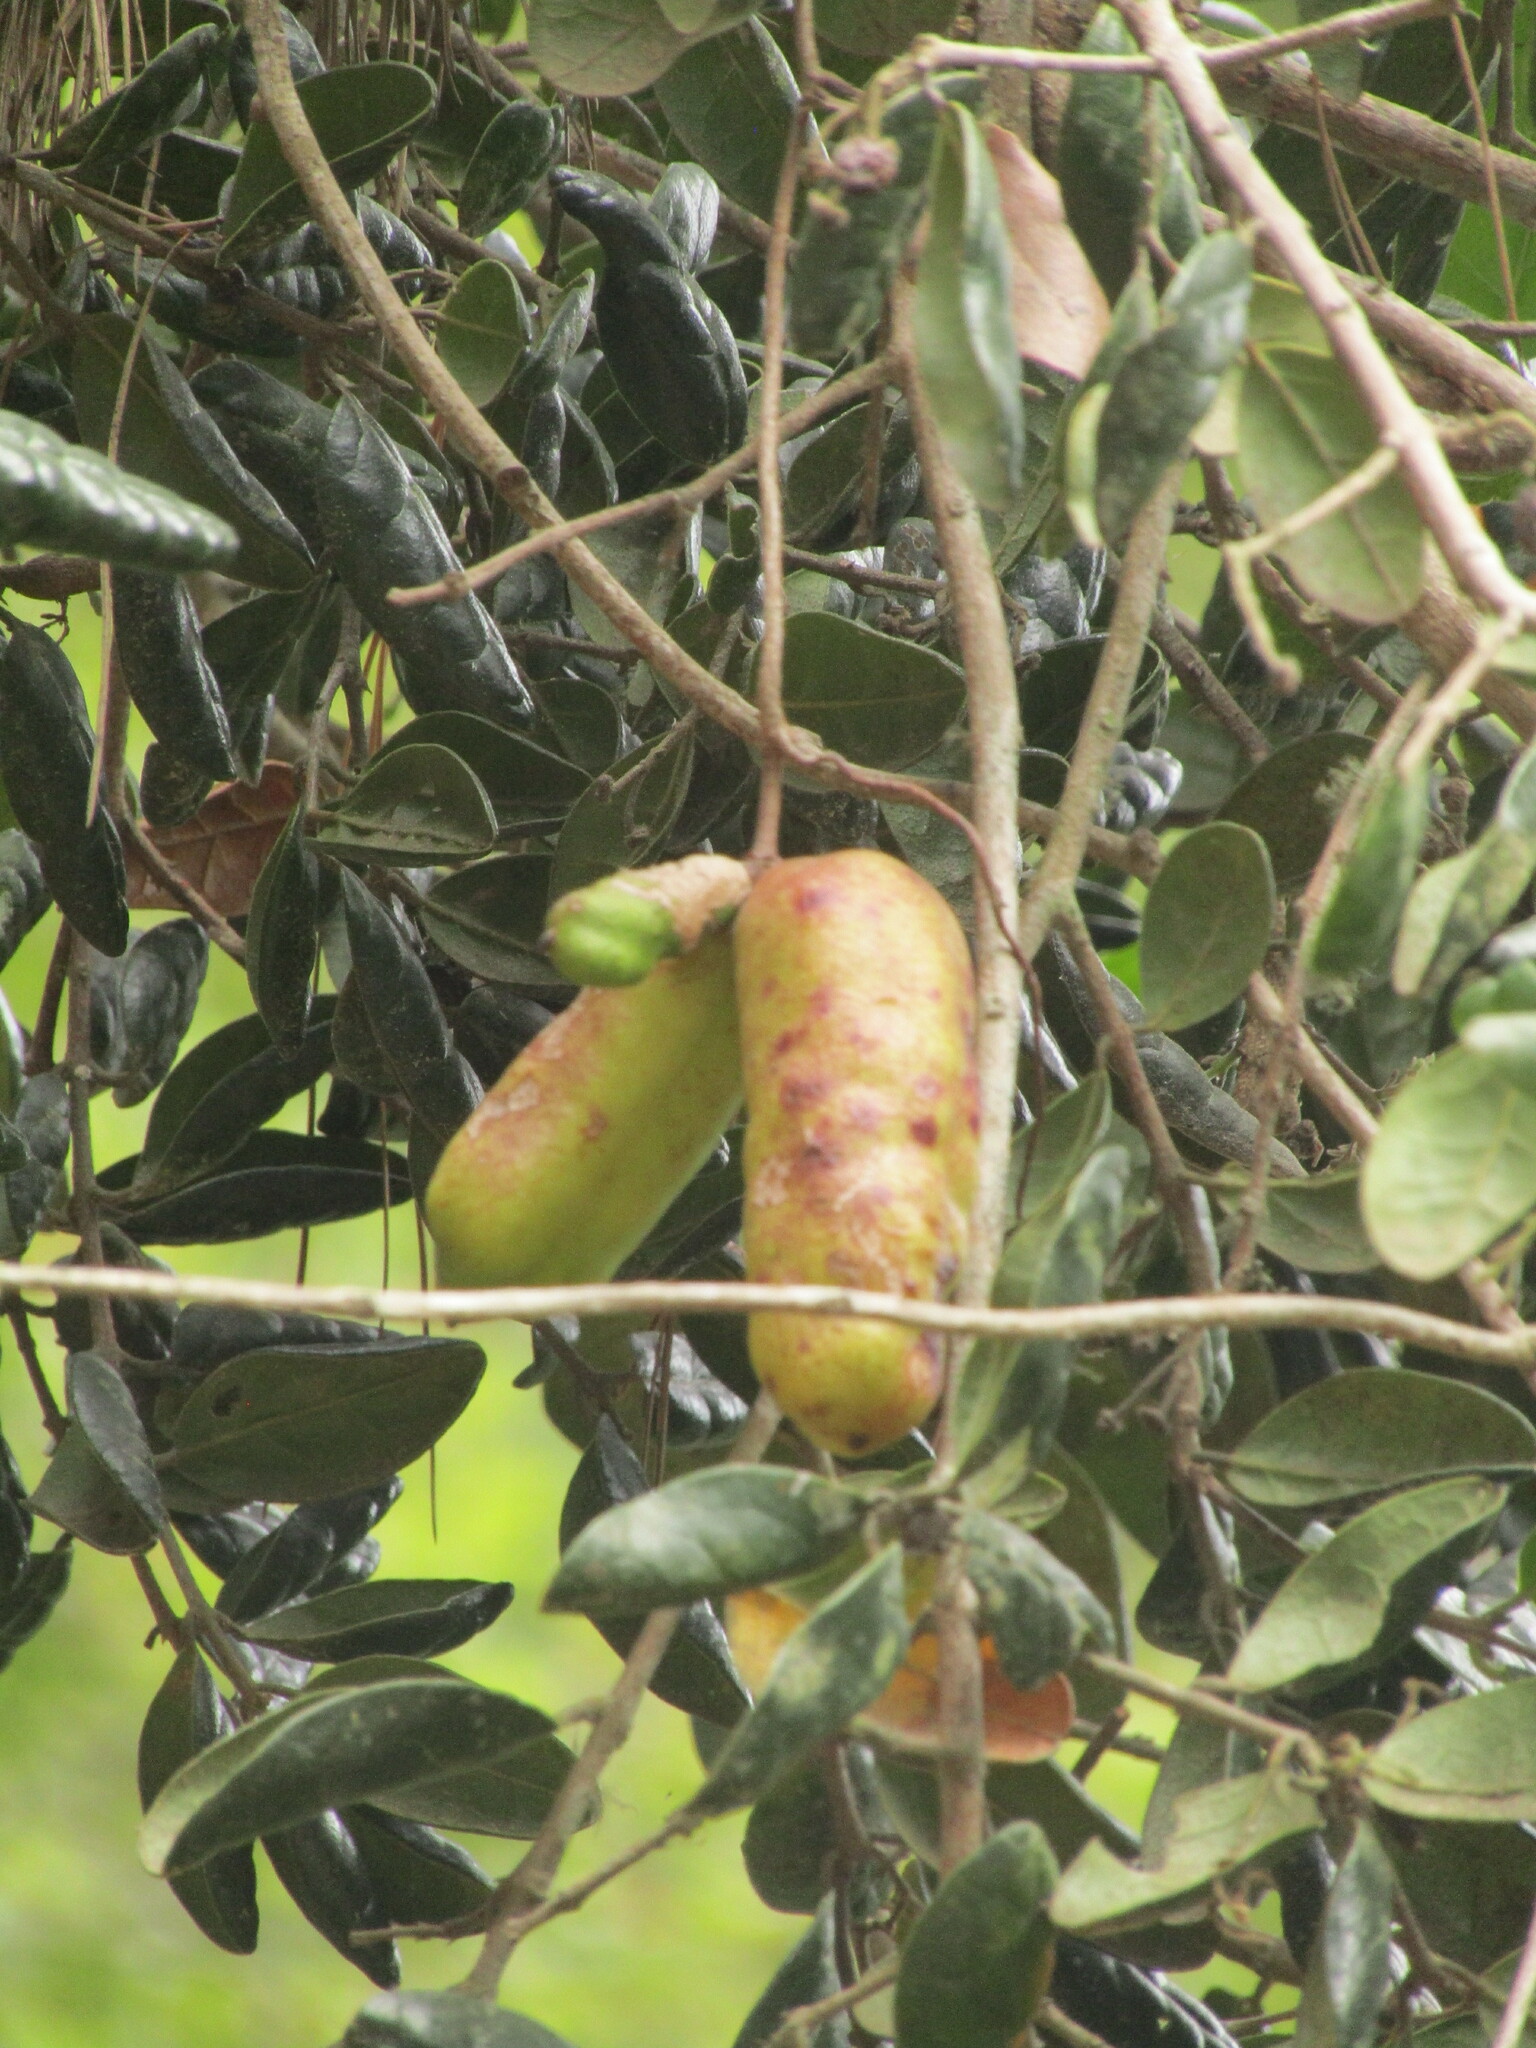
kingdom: Plantae
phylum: Tracheophyta
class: Magnoliopsida
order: Ranunculales
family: Lardizabalaceae
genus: Lardizabala
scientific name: Lardizabala funaria
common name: Zabala
